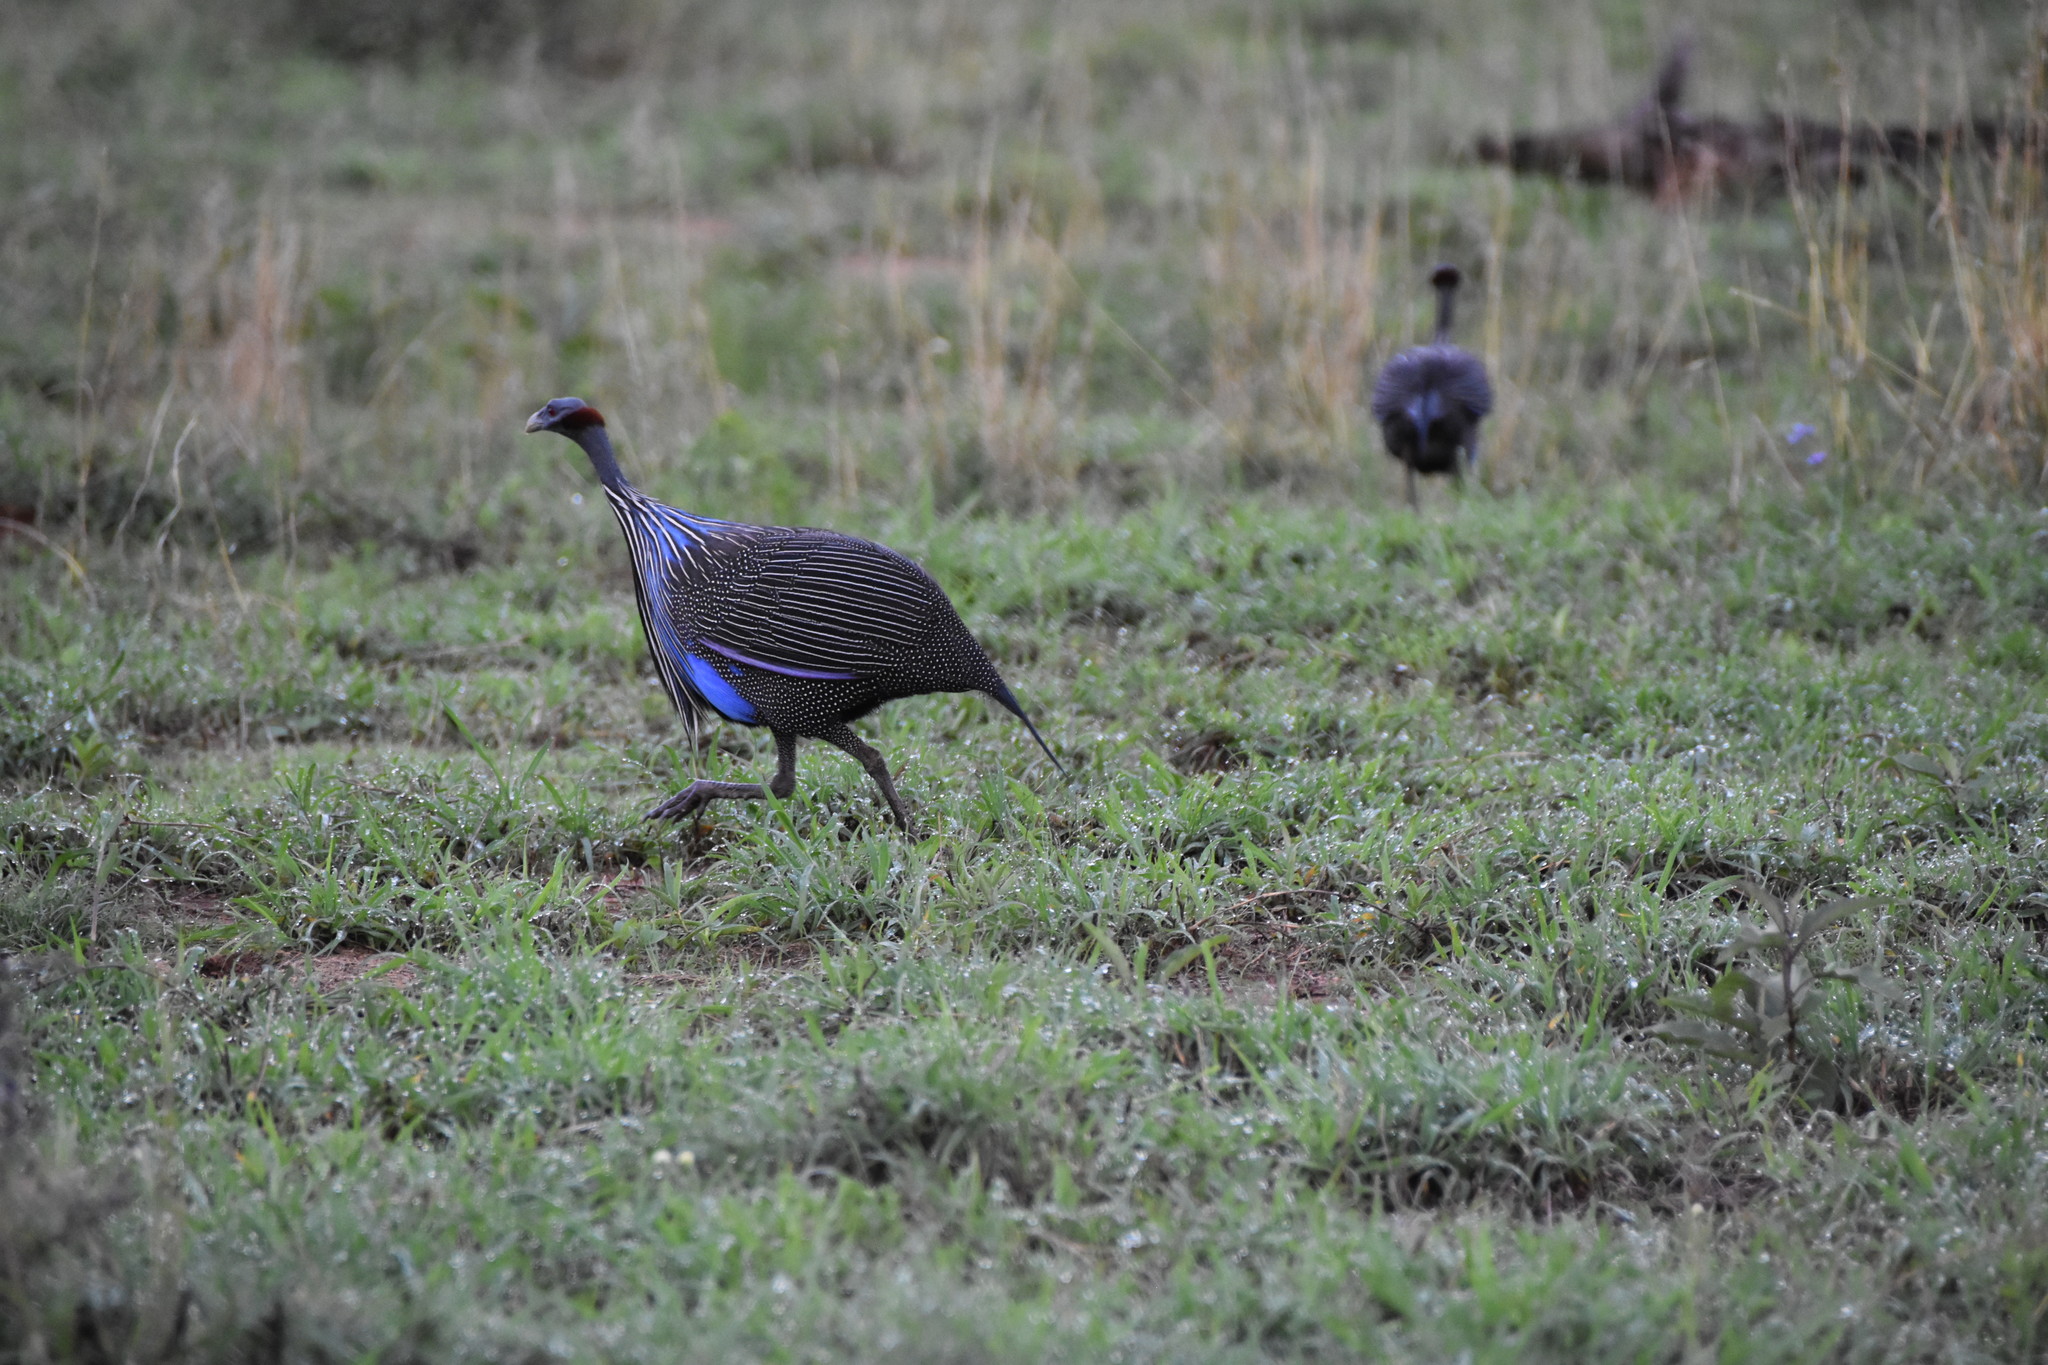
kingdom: Animalia
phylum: Chordata
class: Aves
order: Galliformes
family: Numididae
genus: Acryllium
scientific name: Acryllium vulturinum
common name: Vulturine guineafowl
